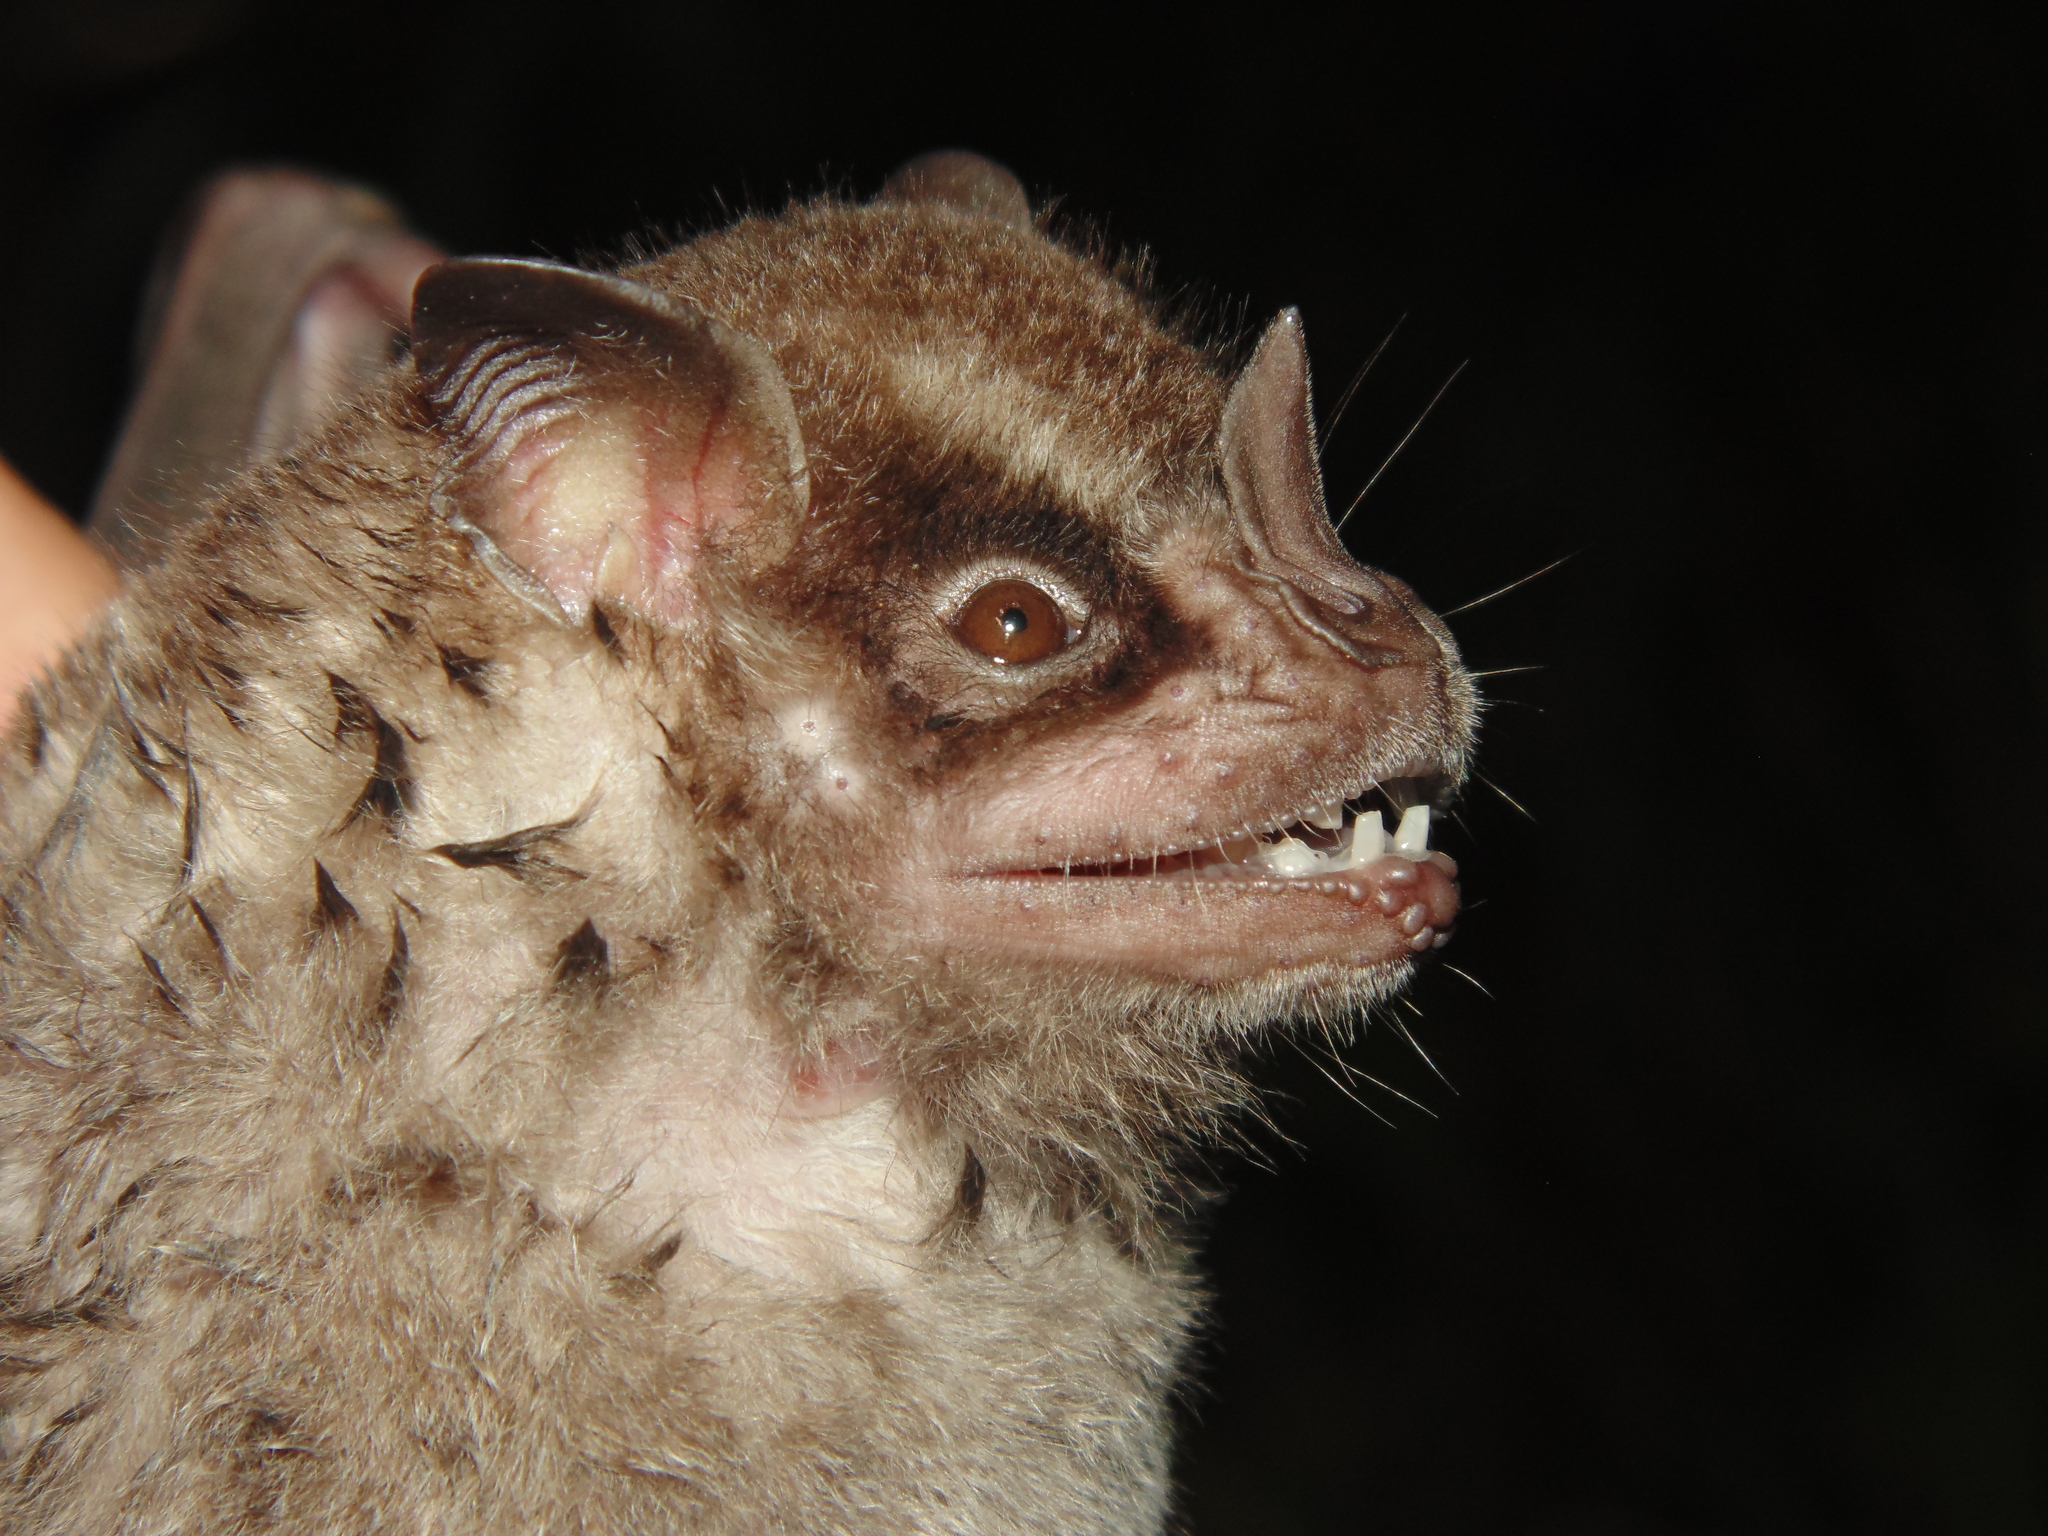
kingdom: Animalia
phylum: Chordata
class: Mammalia
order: Chiroptera
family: Phyllostomidae
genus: Artibeus
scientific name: Artibeus fimbriatus
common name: Fringed fruit-eating bat
